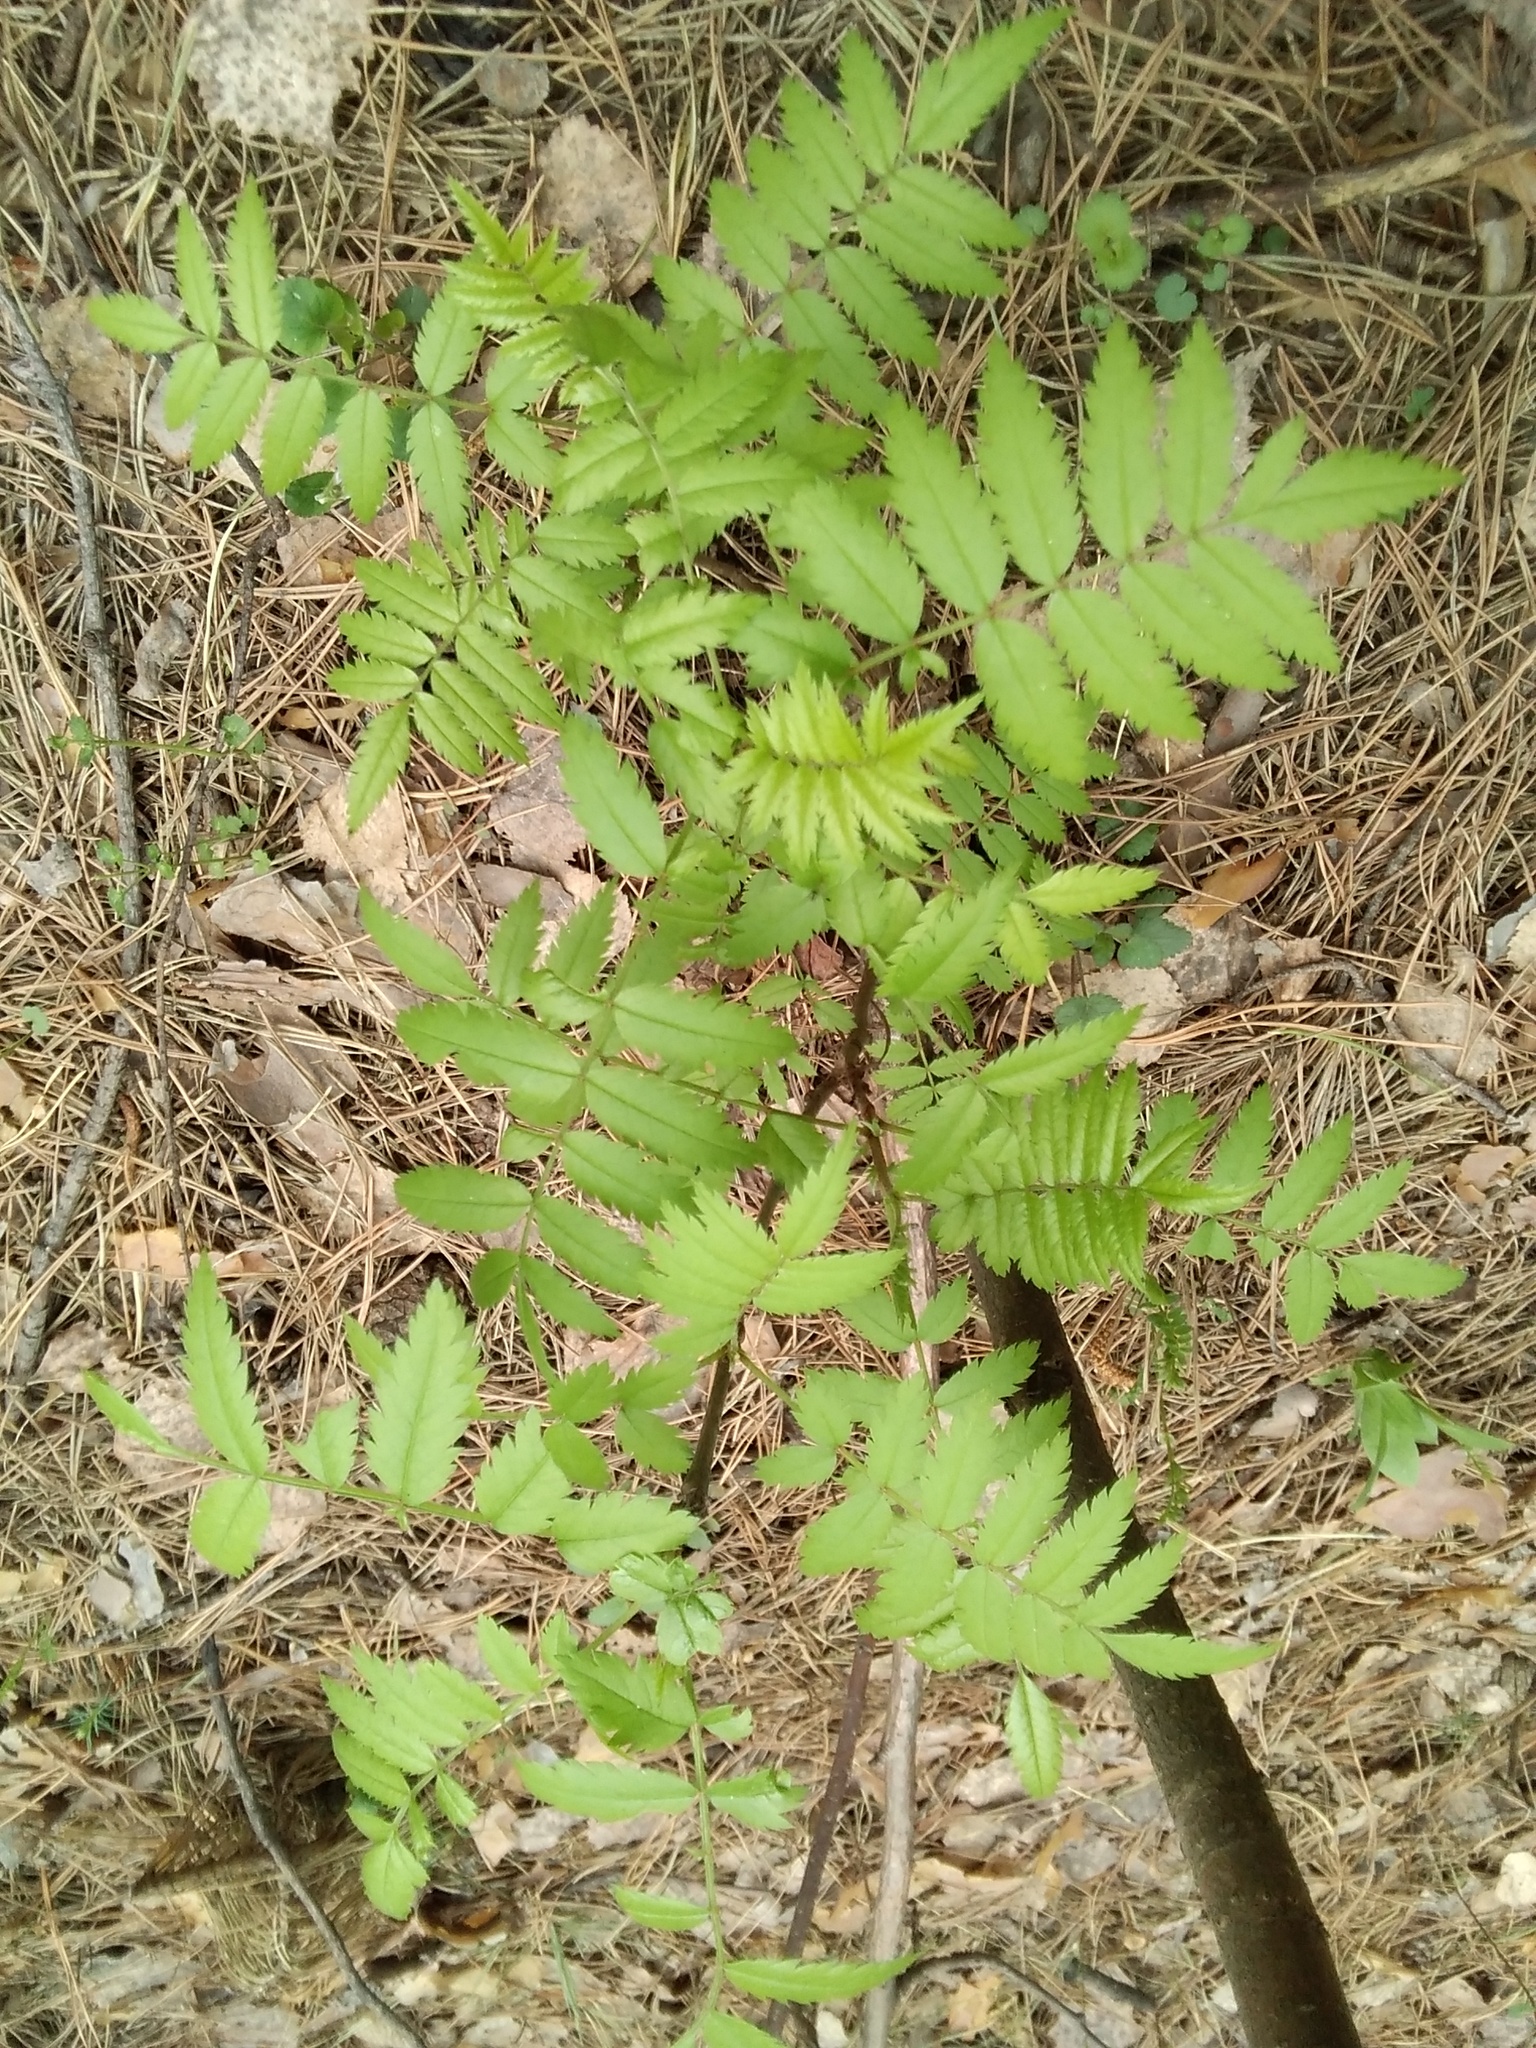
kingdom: Plantae
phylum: Tracheophyta
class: Magnoliopsida
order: Rosales
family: Rosaceae
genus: Sorbus
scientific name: Sorbus aucuparia
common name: Rowan
